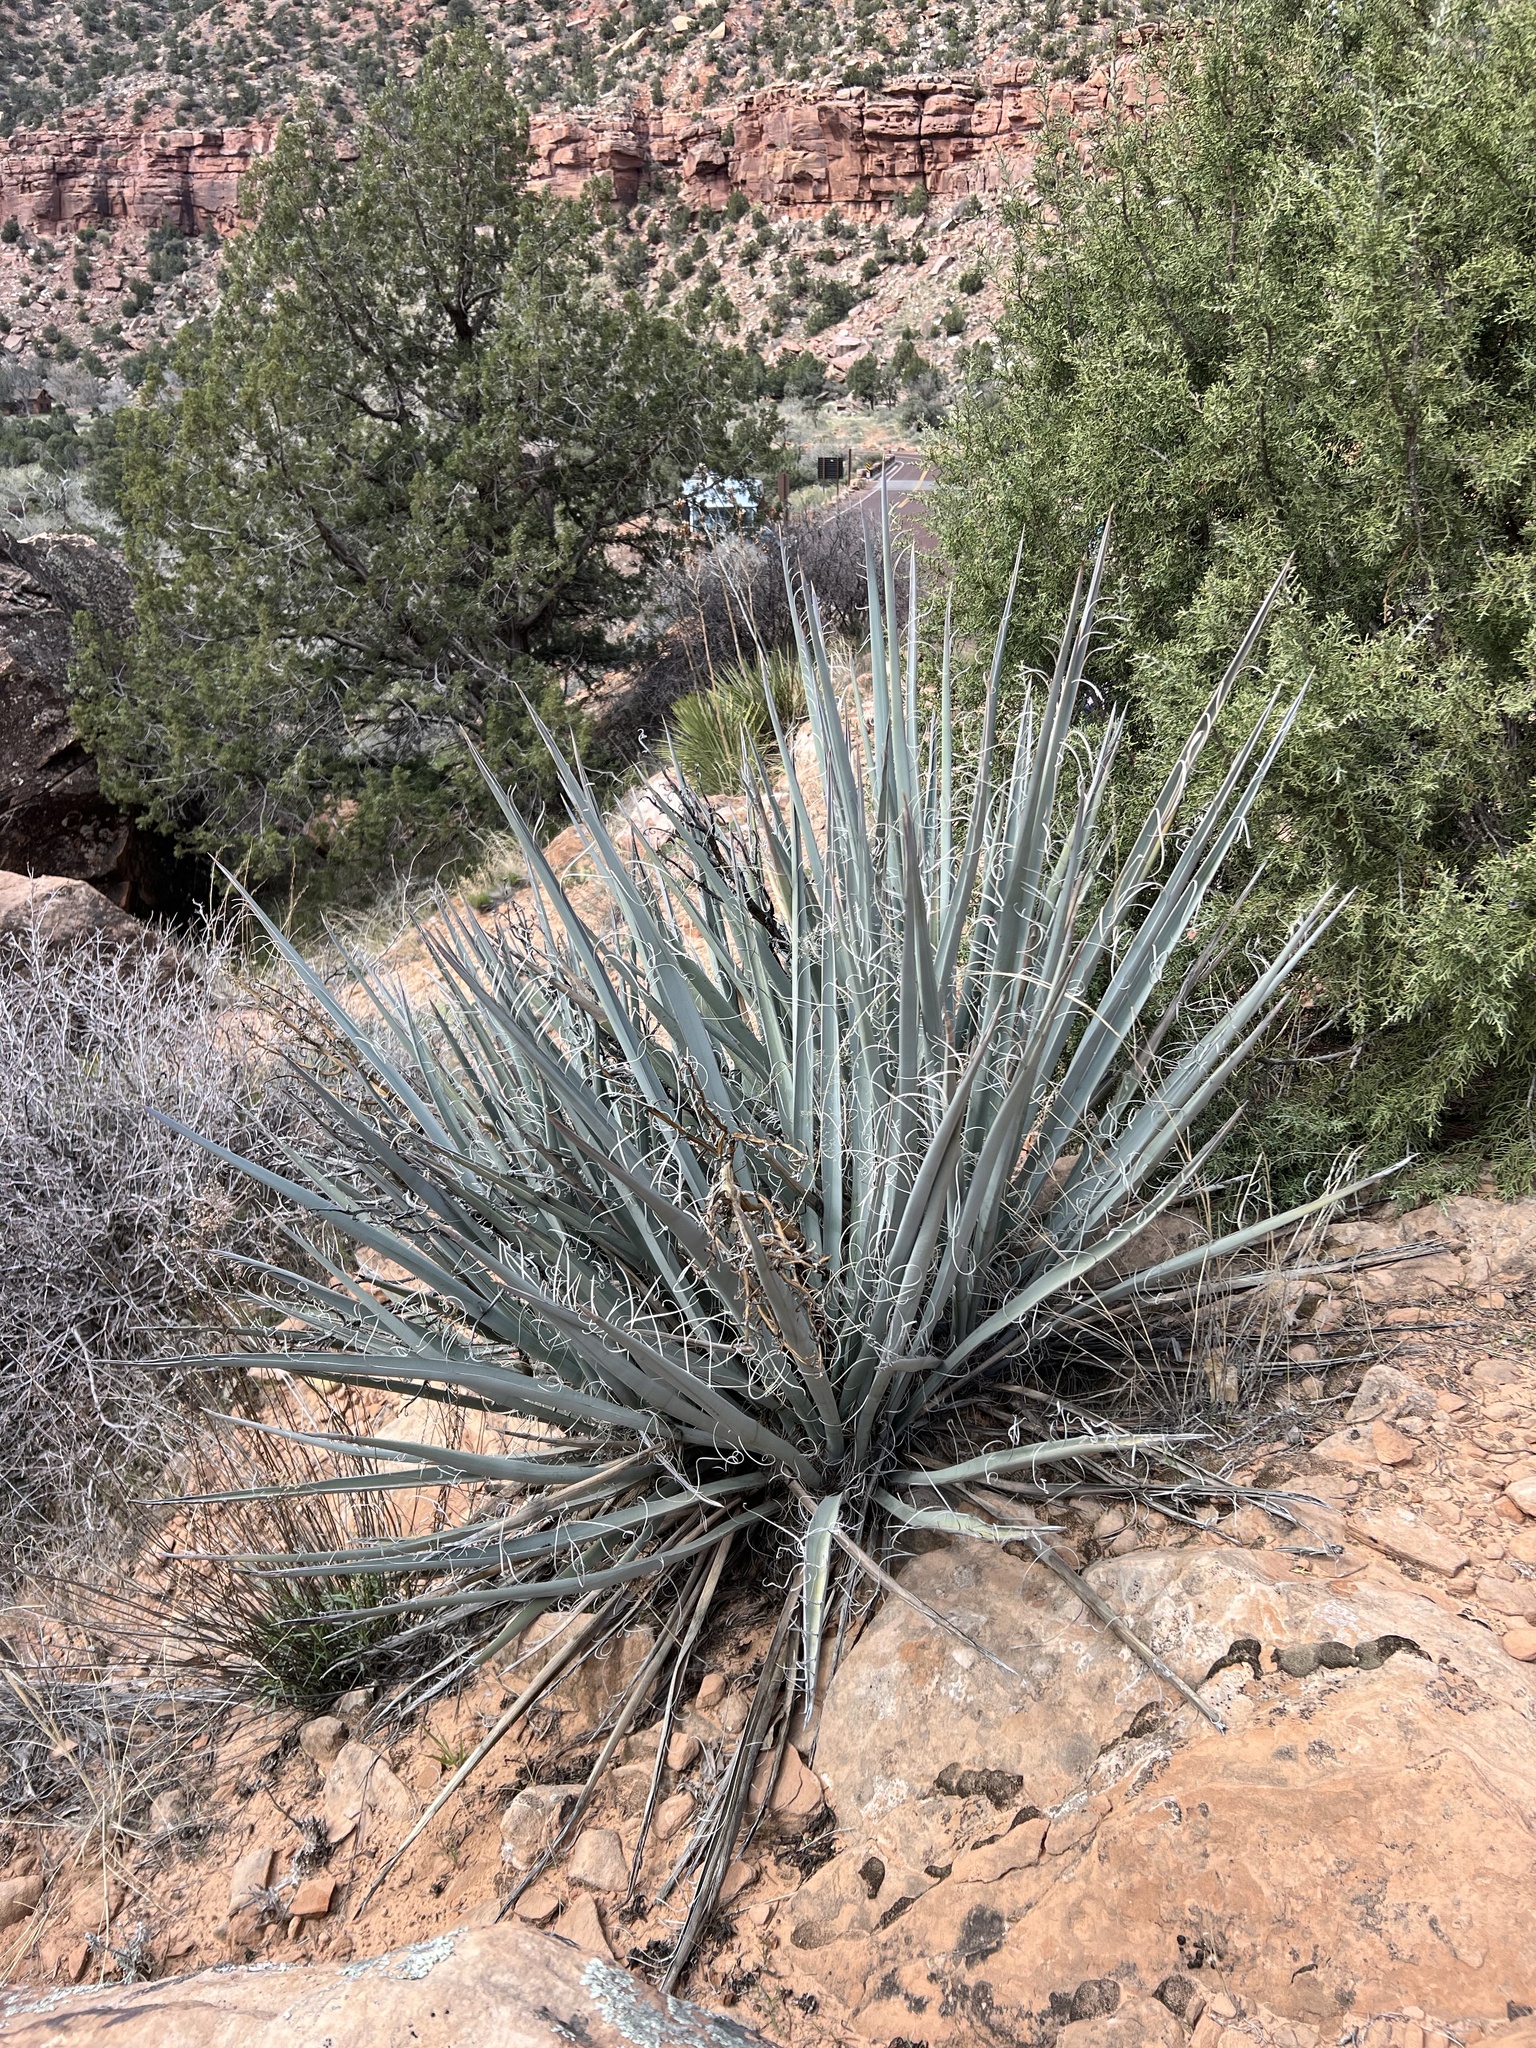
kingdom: Plantae
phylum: Tracheophyta
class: Liliopsida
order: Asparagales
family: Asparagaceae
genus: Yucca
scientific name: Yucca baccata
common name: Banana yucca
